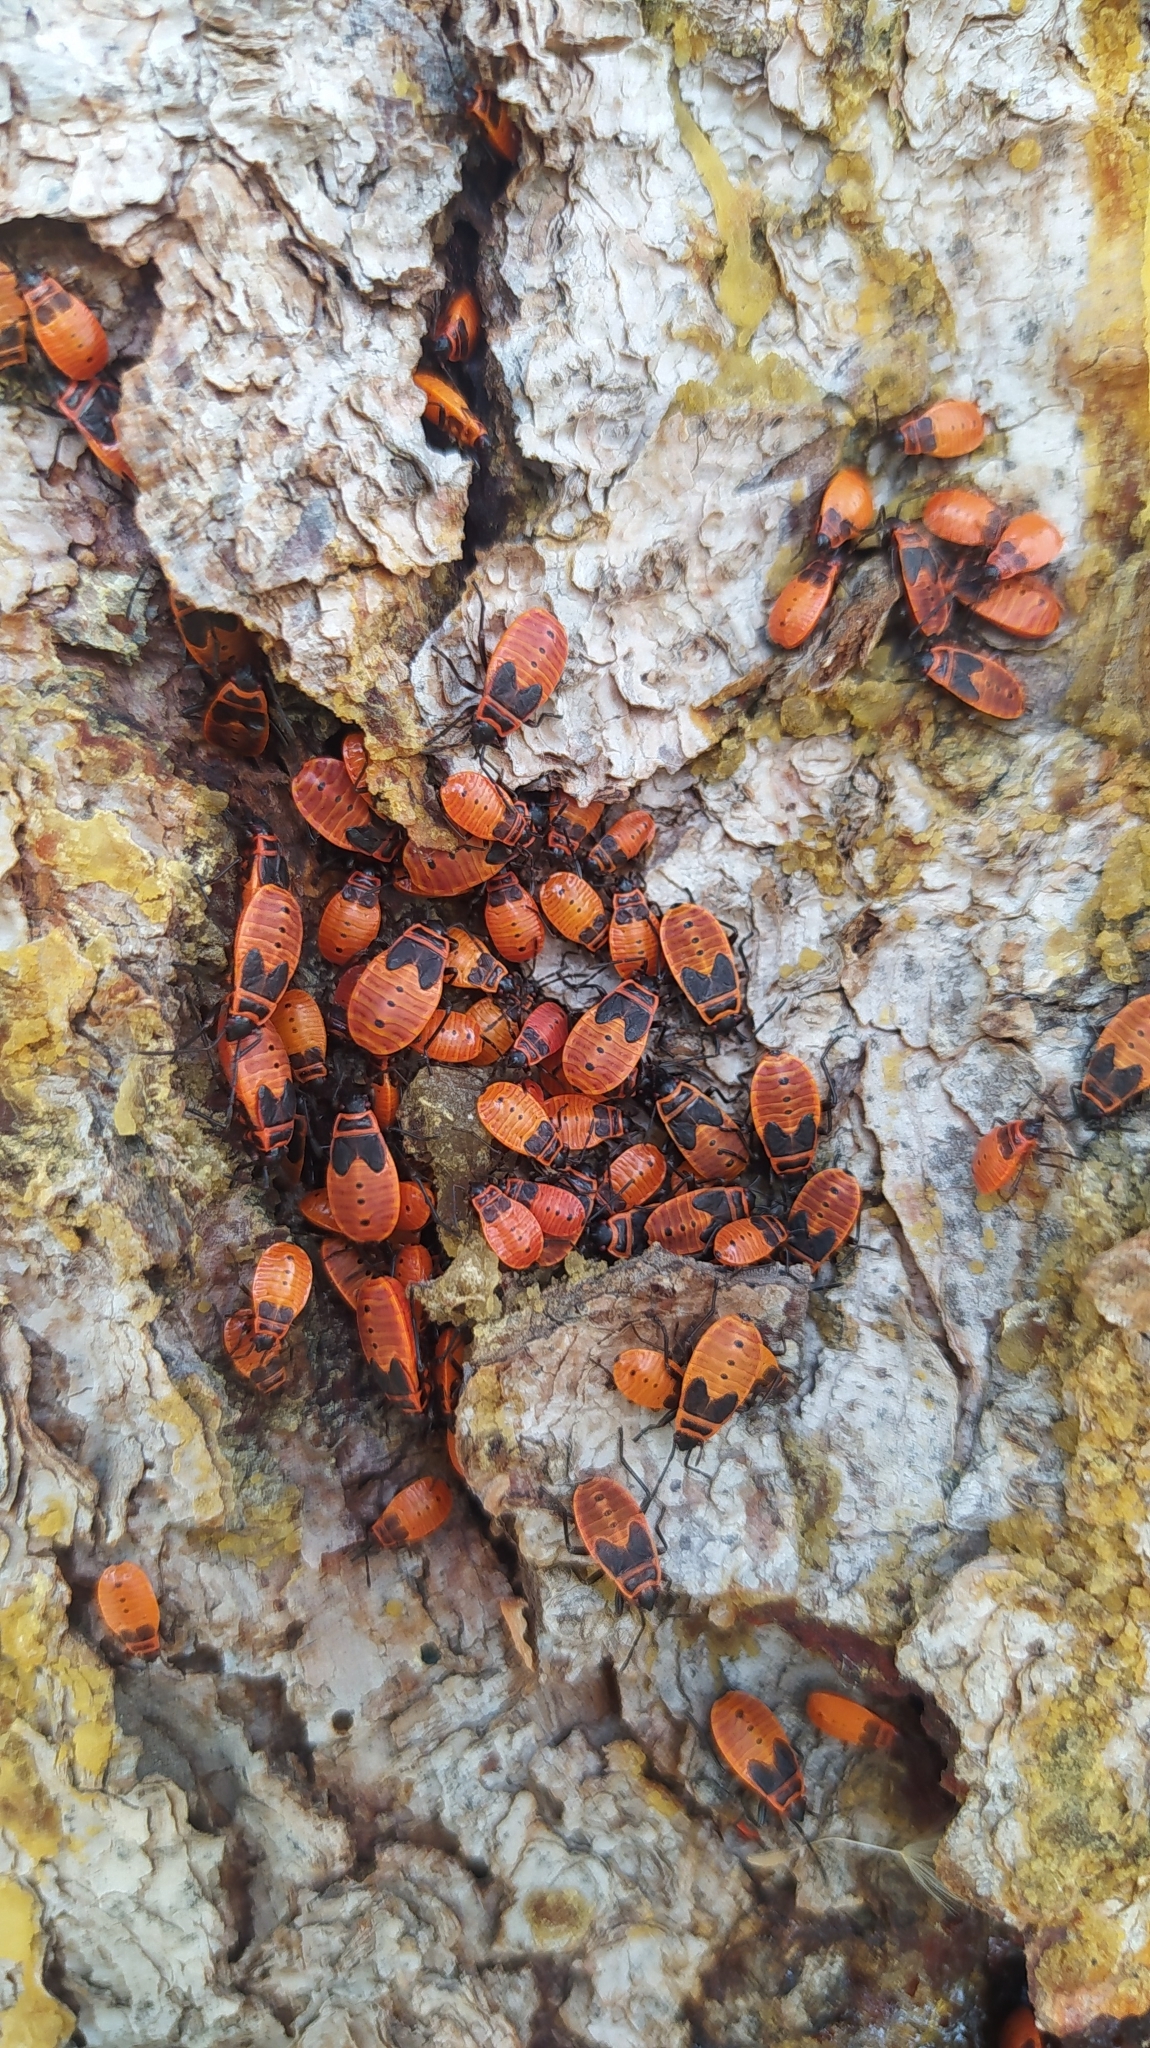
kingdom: Animalia
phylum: Arthropoda
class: Insecta
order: Hemiptera
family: Pyrrhocoridae
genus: Pyrrhocoris
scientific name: Pyrrhocoris apterus
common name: Firebug
